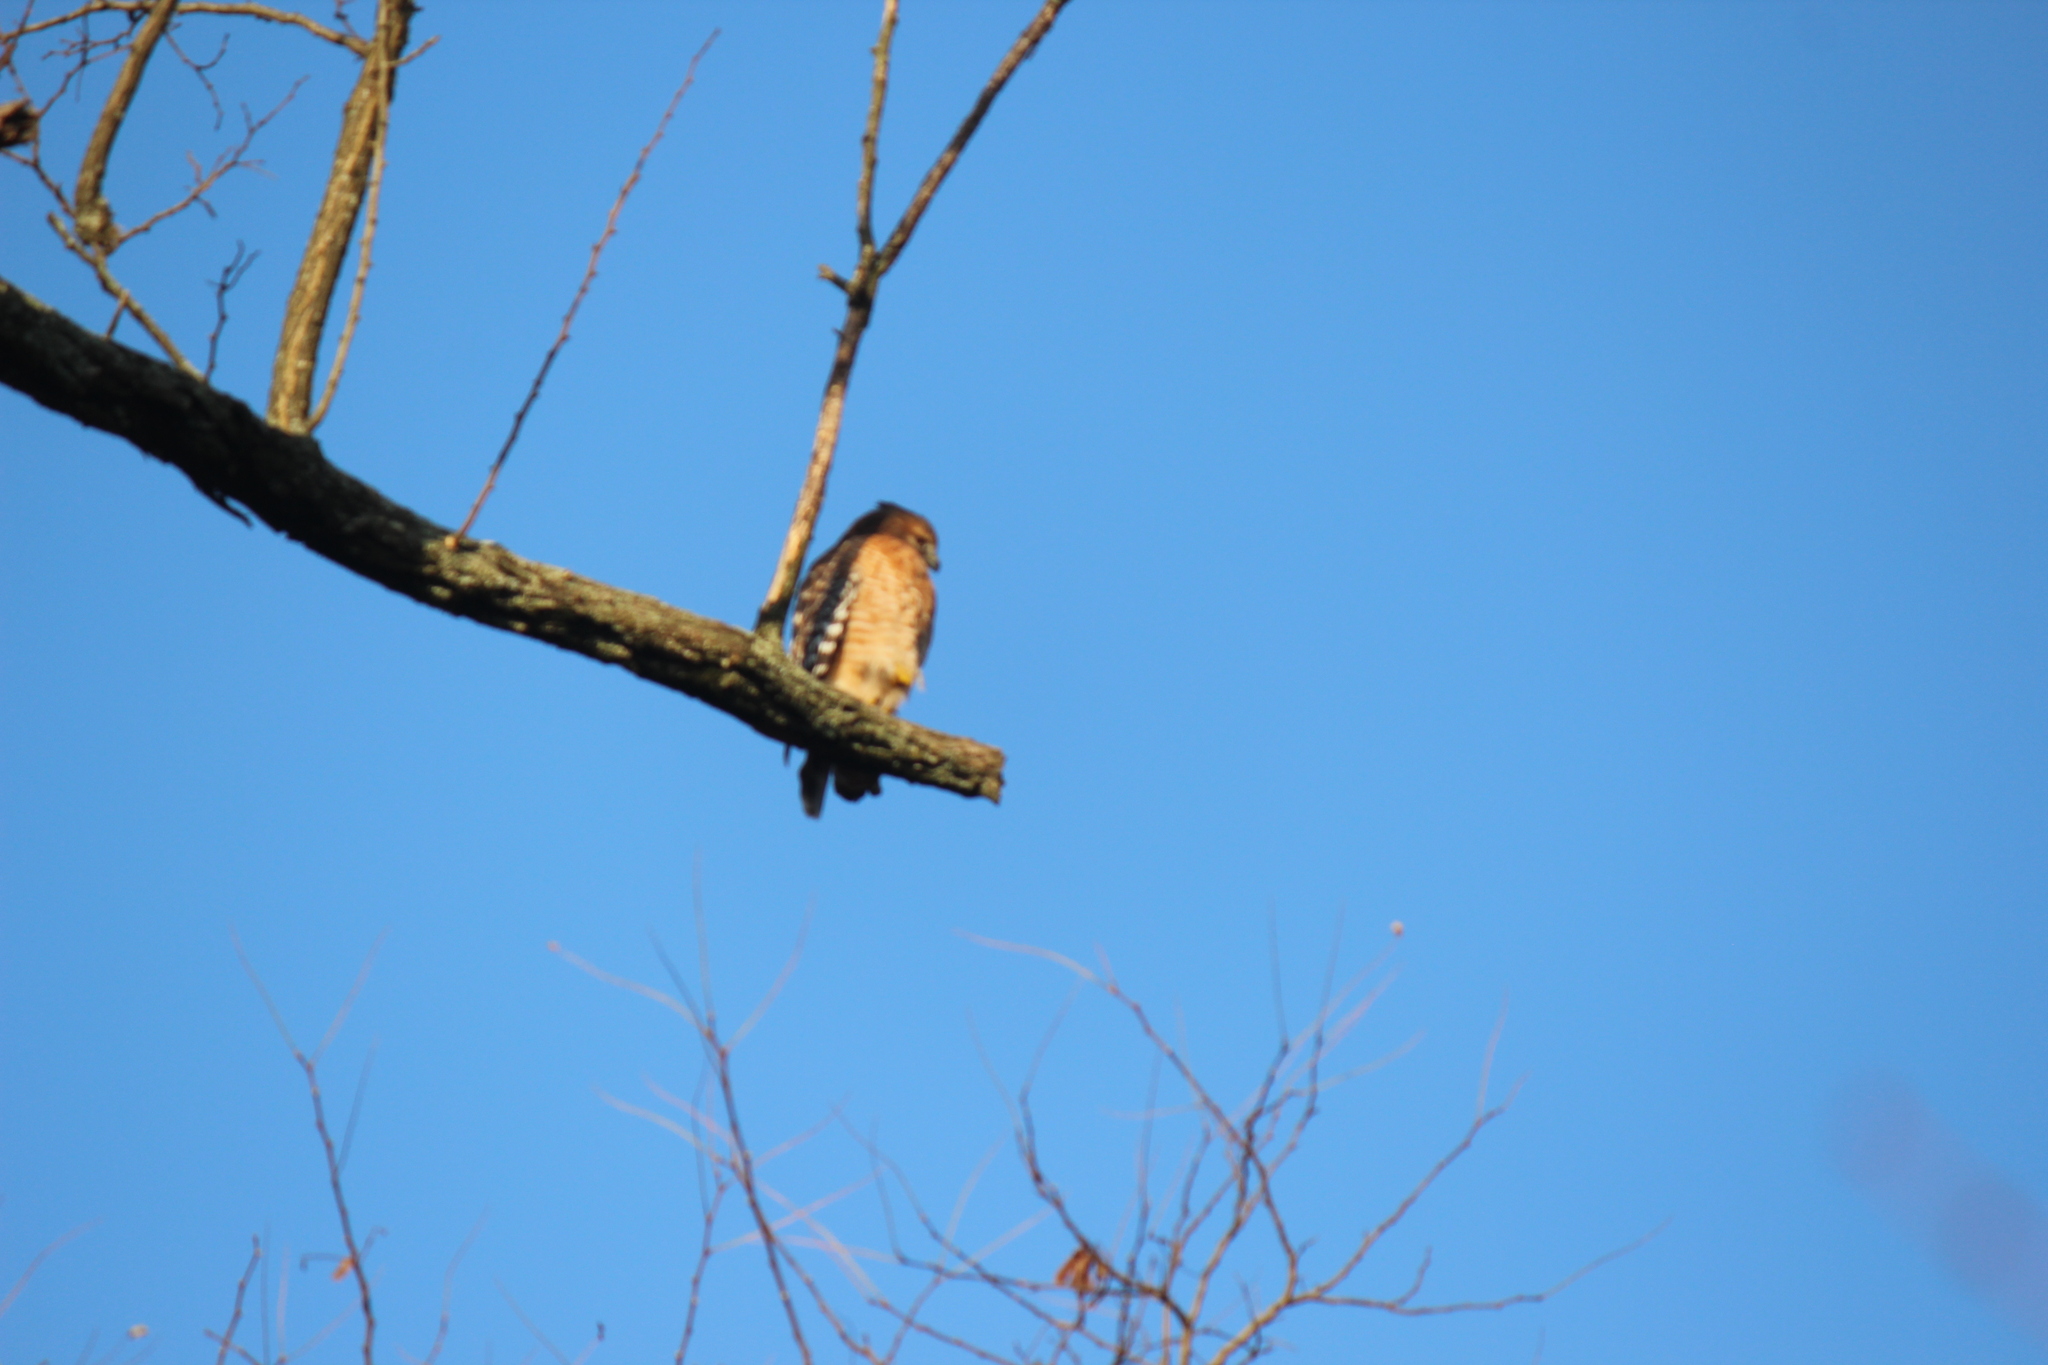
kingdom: Animalia
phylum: Chordata
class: Aves
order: Accipitriformes
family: Accipitridae
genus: Buteo
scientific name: Buteo lineatus
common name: Red-shouldered hawk
